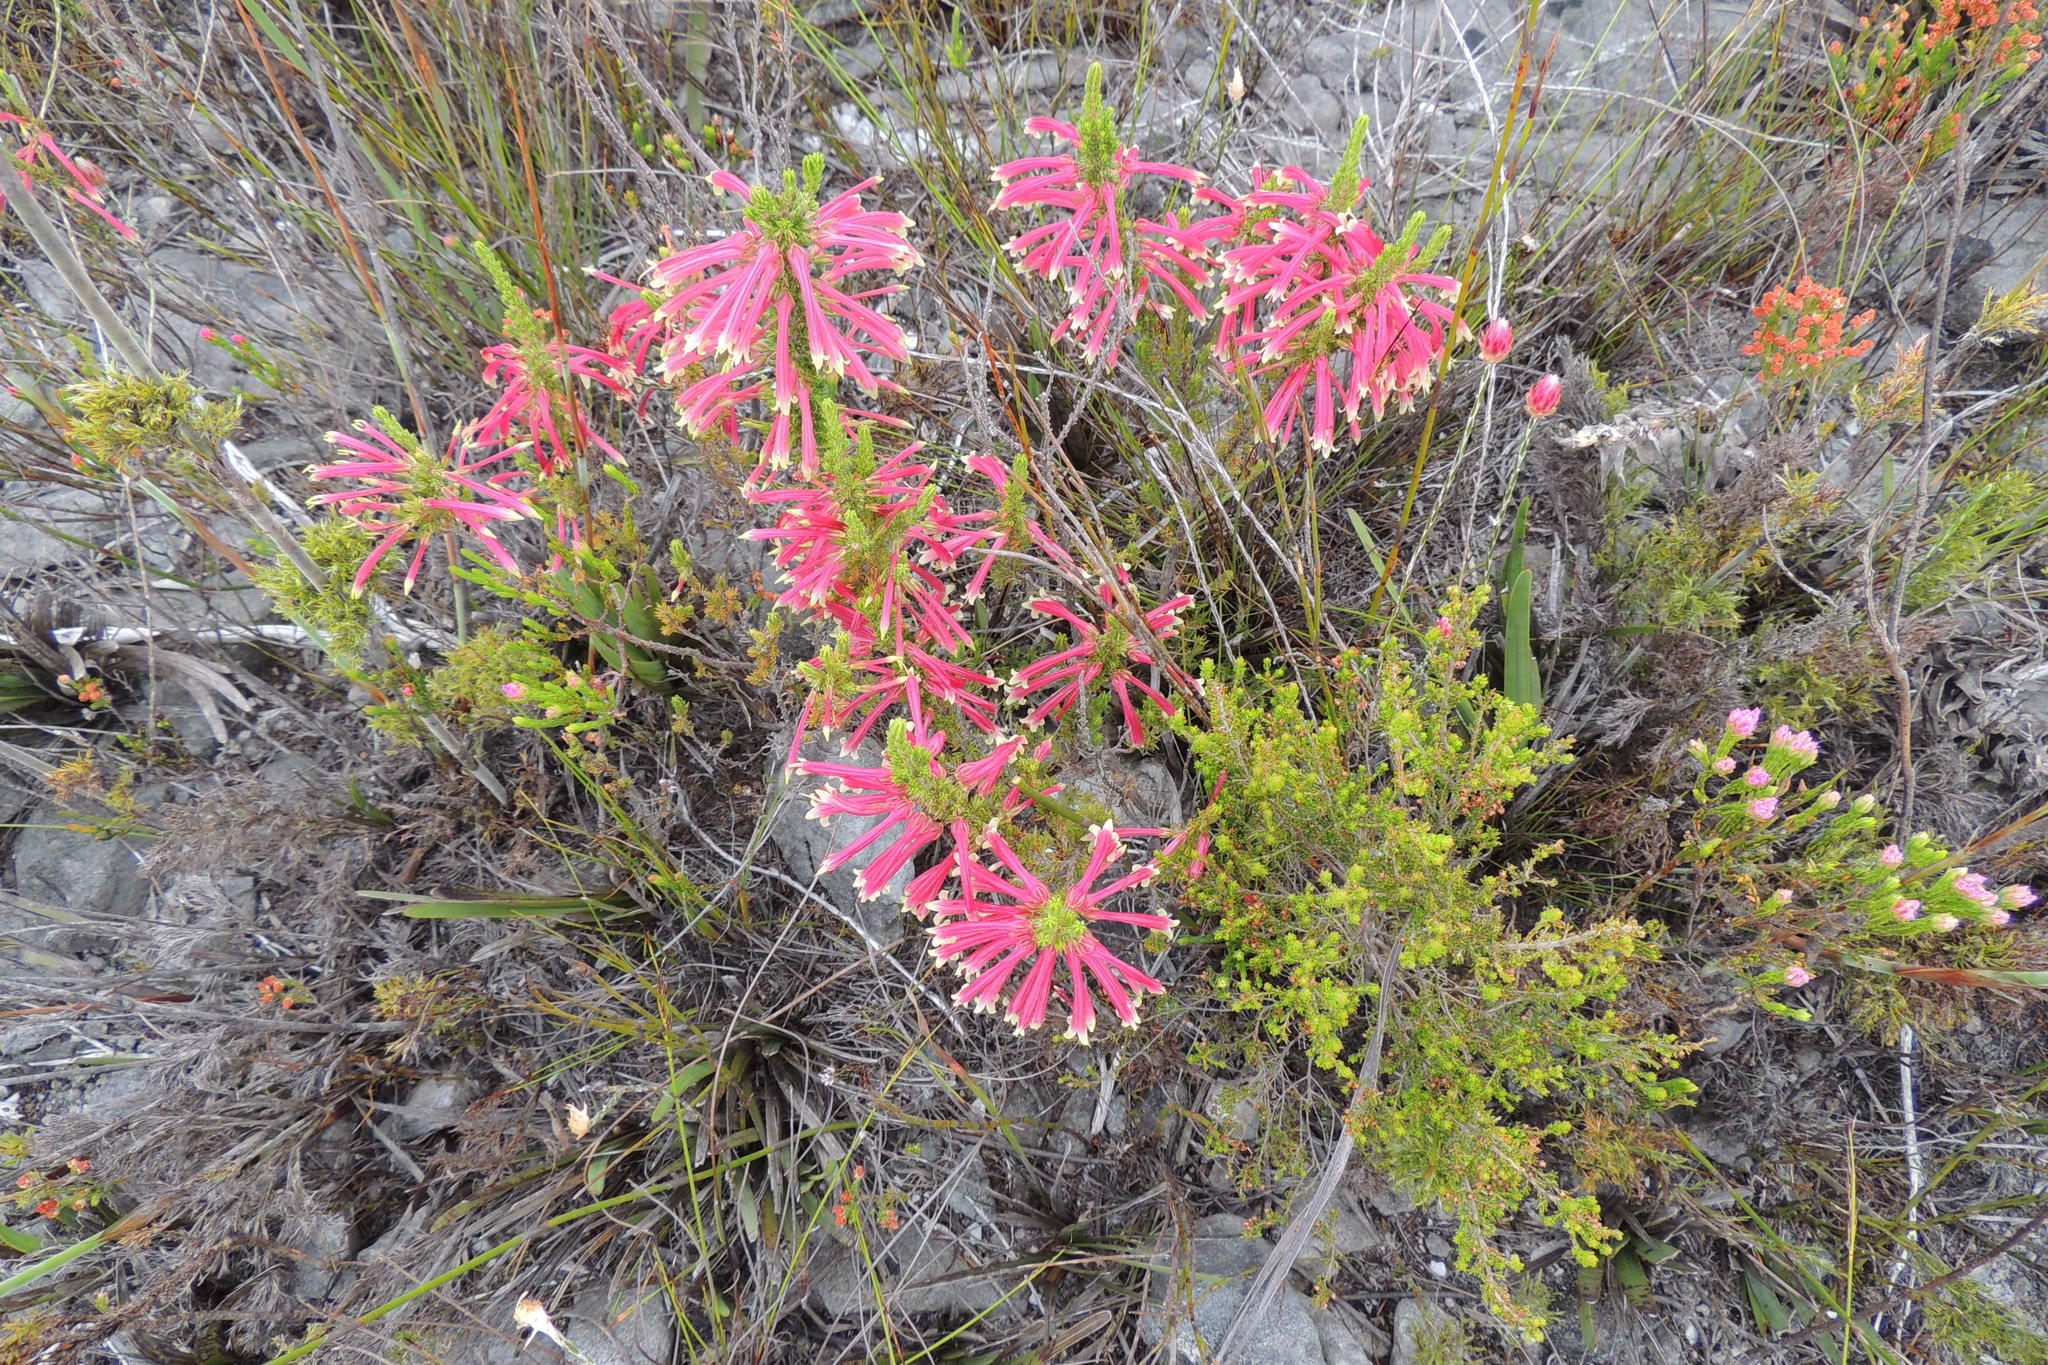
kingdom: Plantae
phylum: Tracheophyta
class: Magnoliopsida
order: Ericales
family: Ericaceae
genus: Erica
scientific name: Erica densifolia
